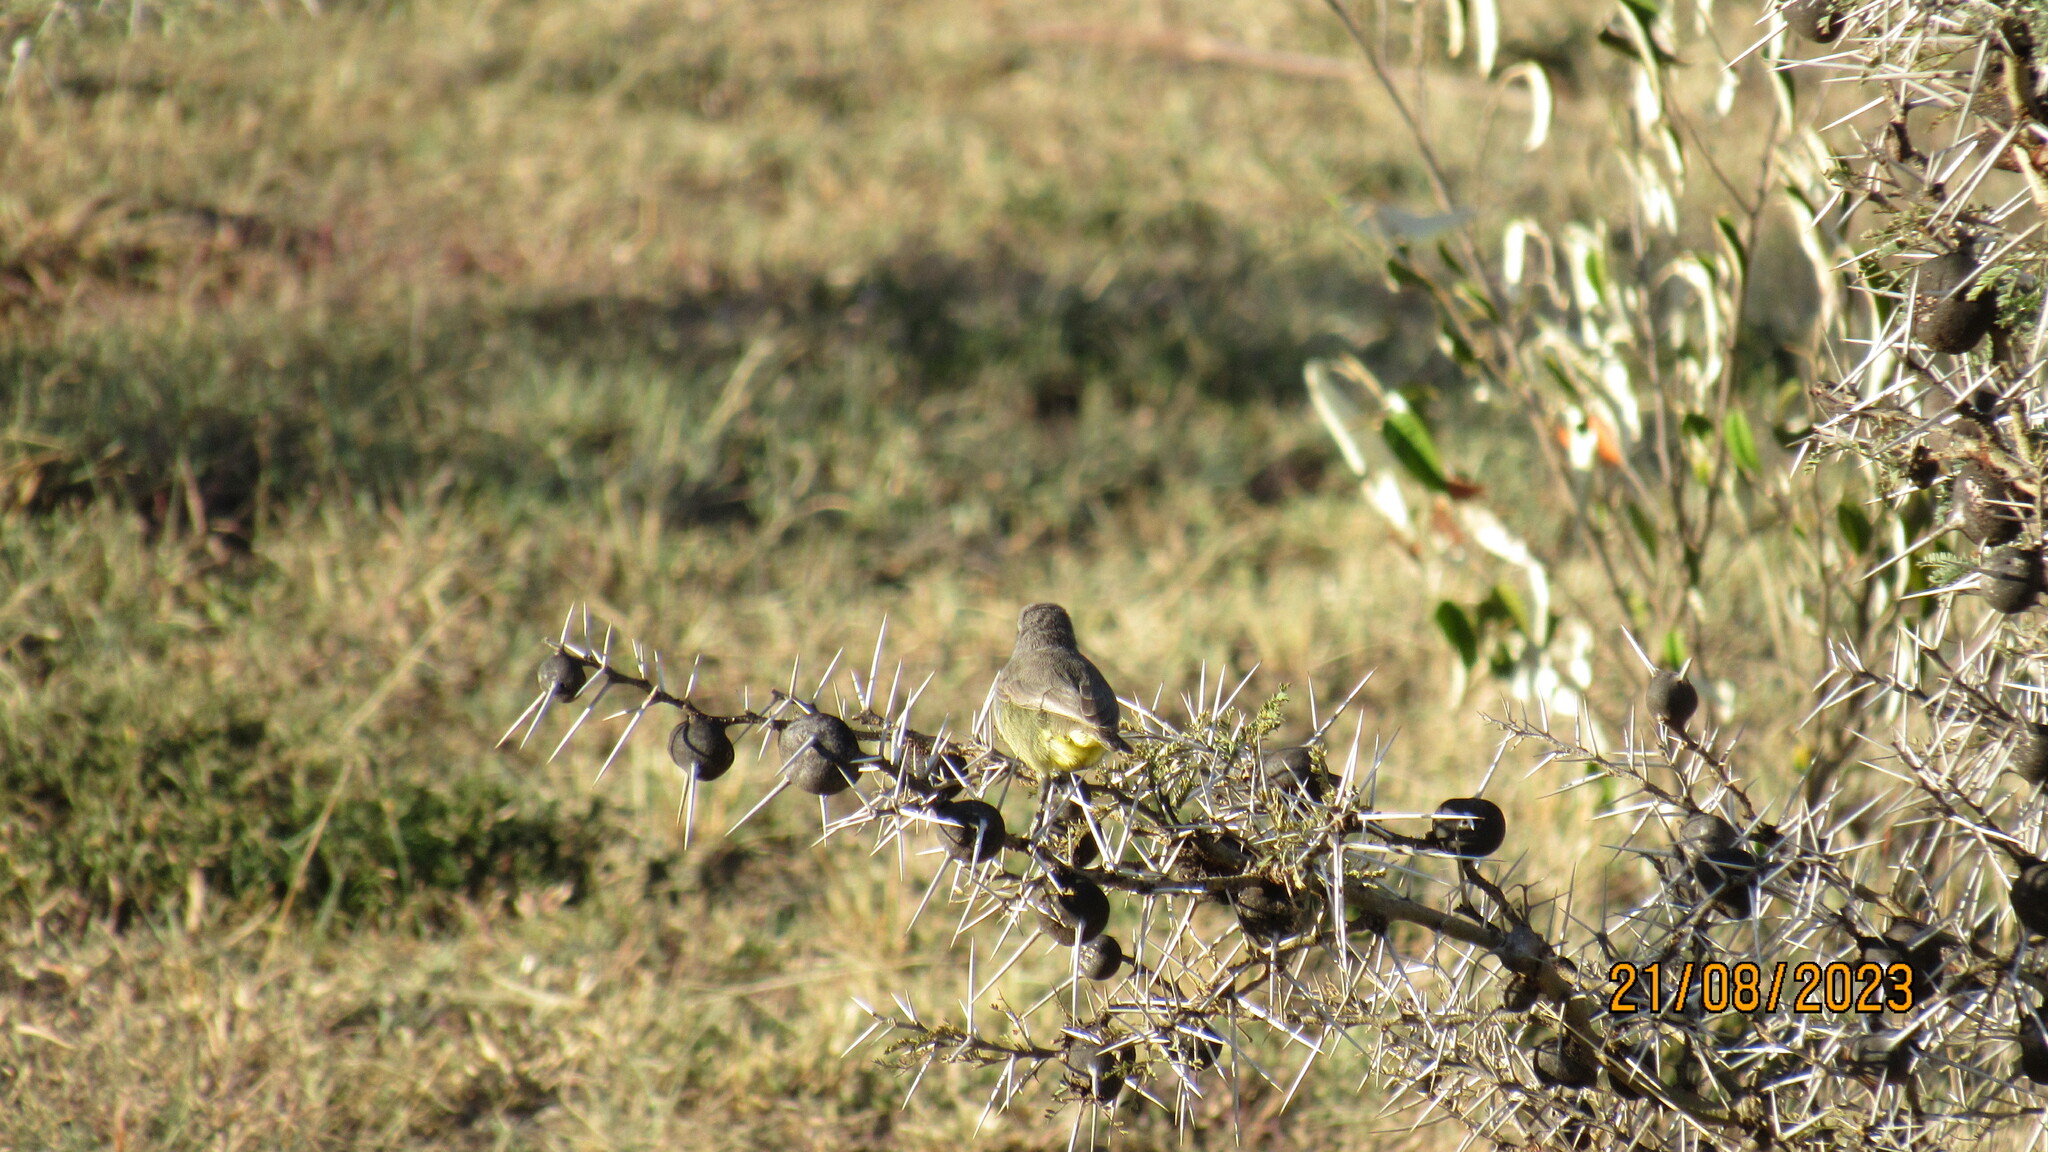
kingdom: Animalia
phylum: Chordata
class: Aves
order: Passeriformes
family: Cisticolidae
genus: Eremomela
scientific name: Eremomela icteropygialis
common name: Yellow-bellied eremomela
